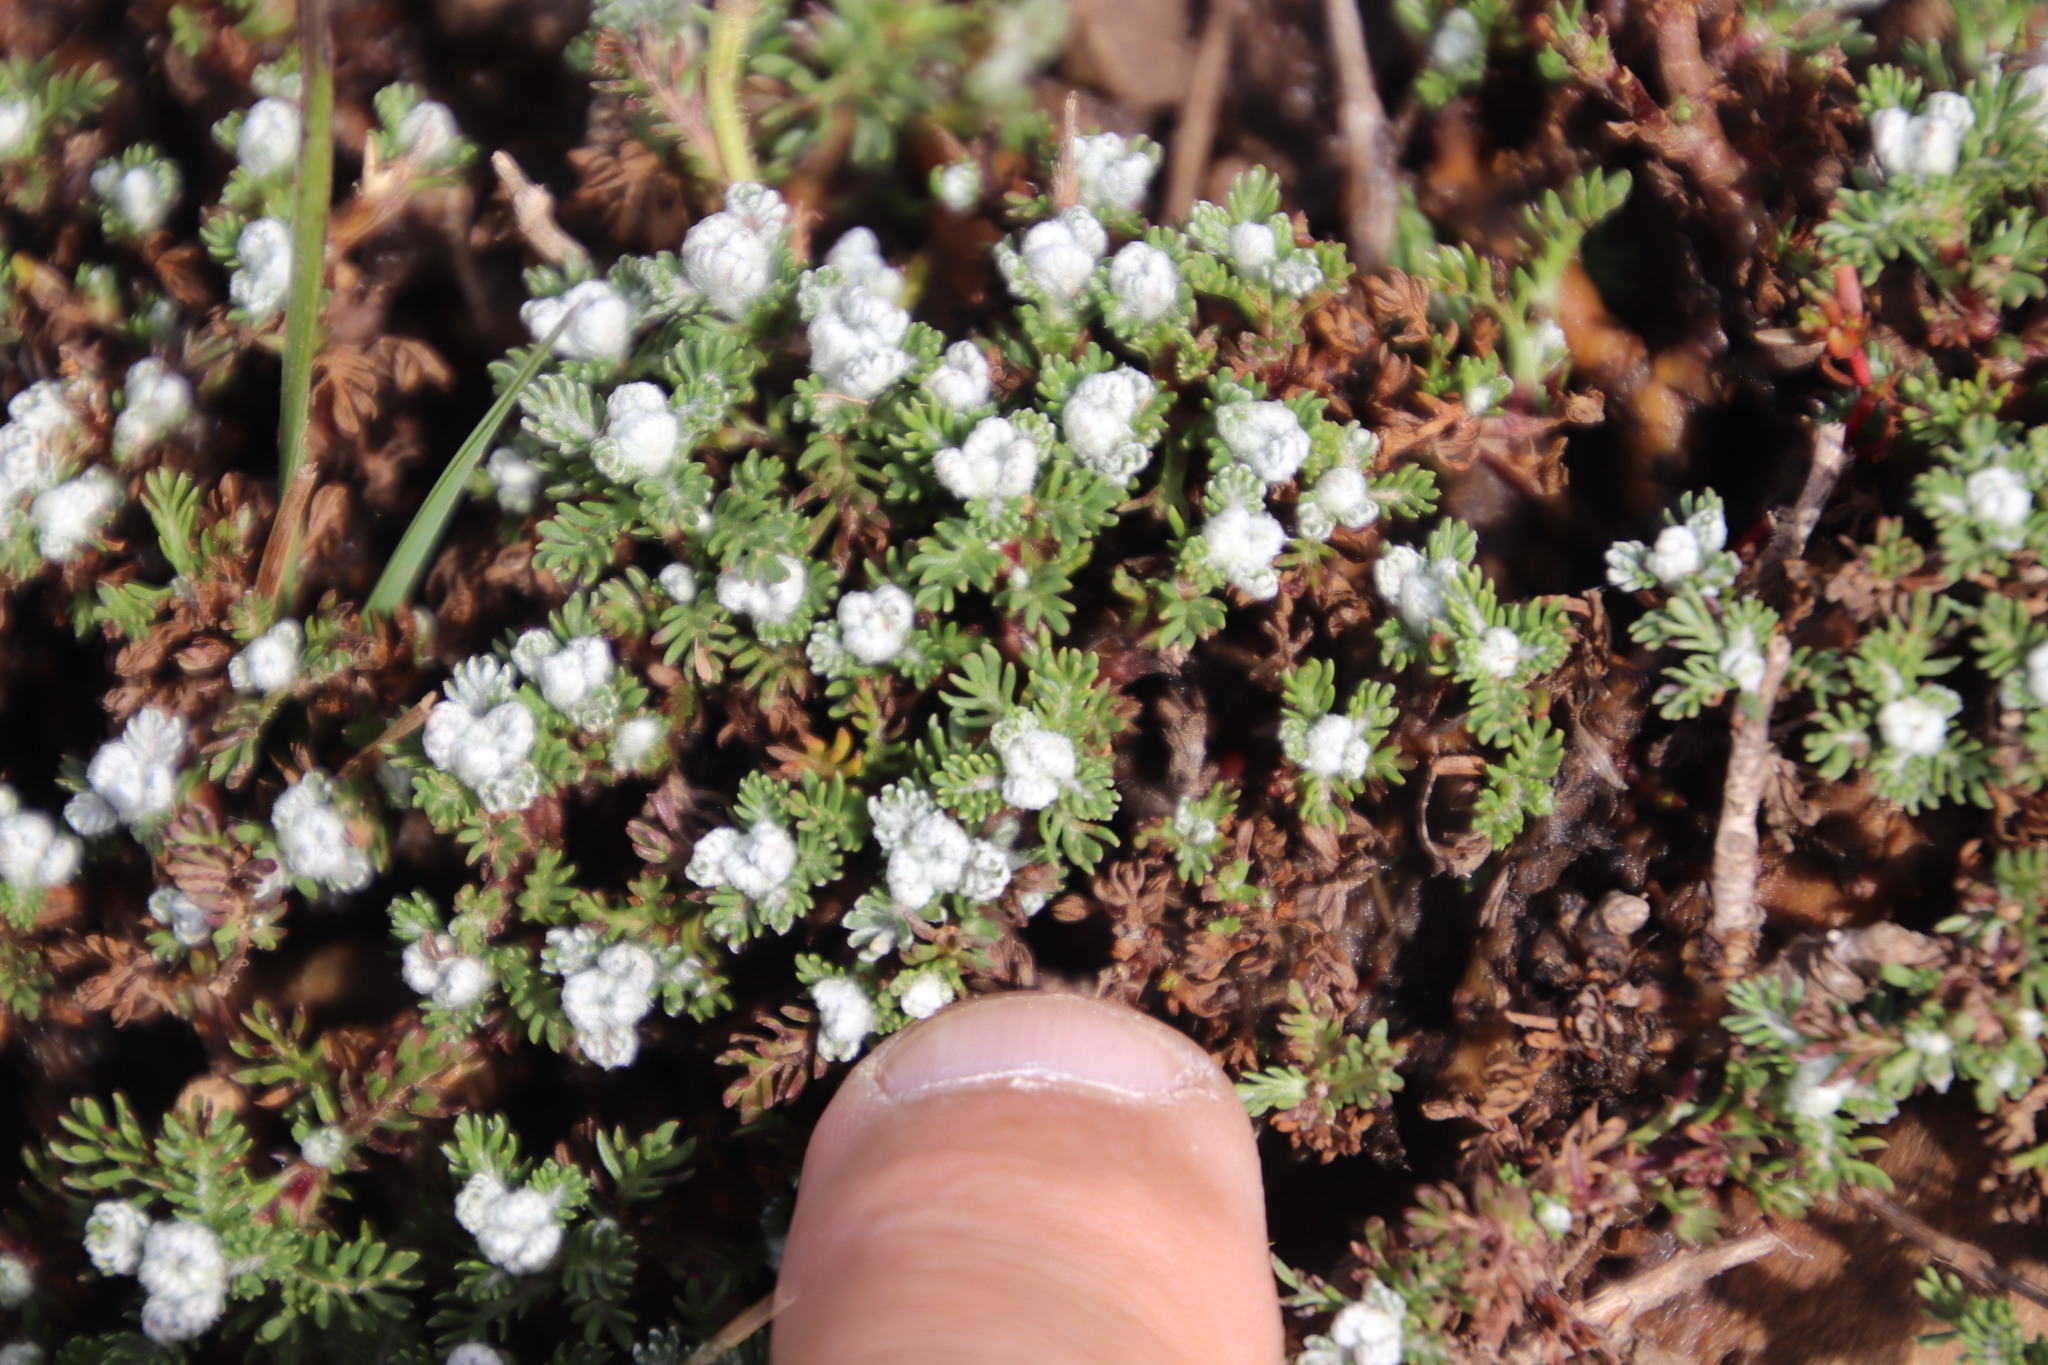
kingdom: Plantae
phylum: Tracheophyta
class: Magnoliopsida
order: Asterales
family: Asteraceae
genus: Senecio
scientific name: Senecio seminiveus
